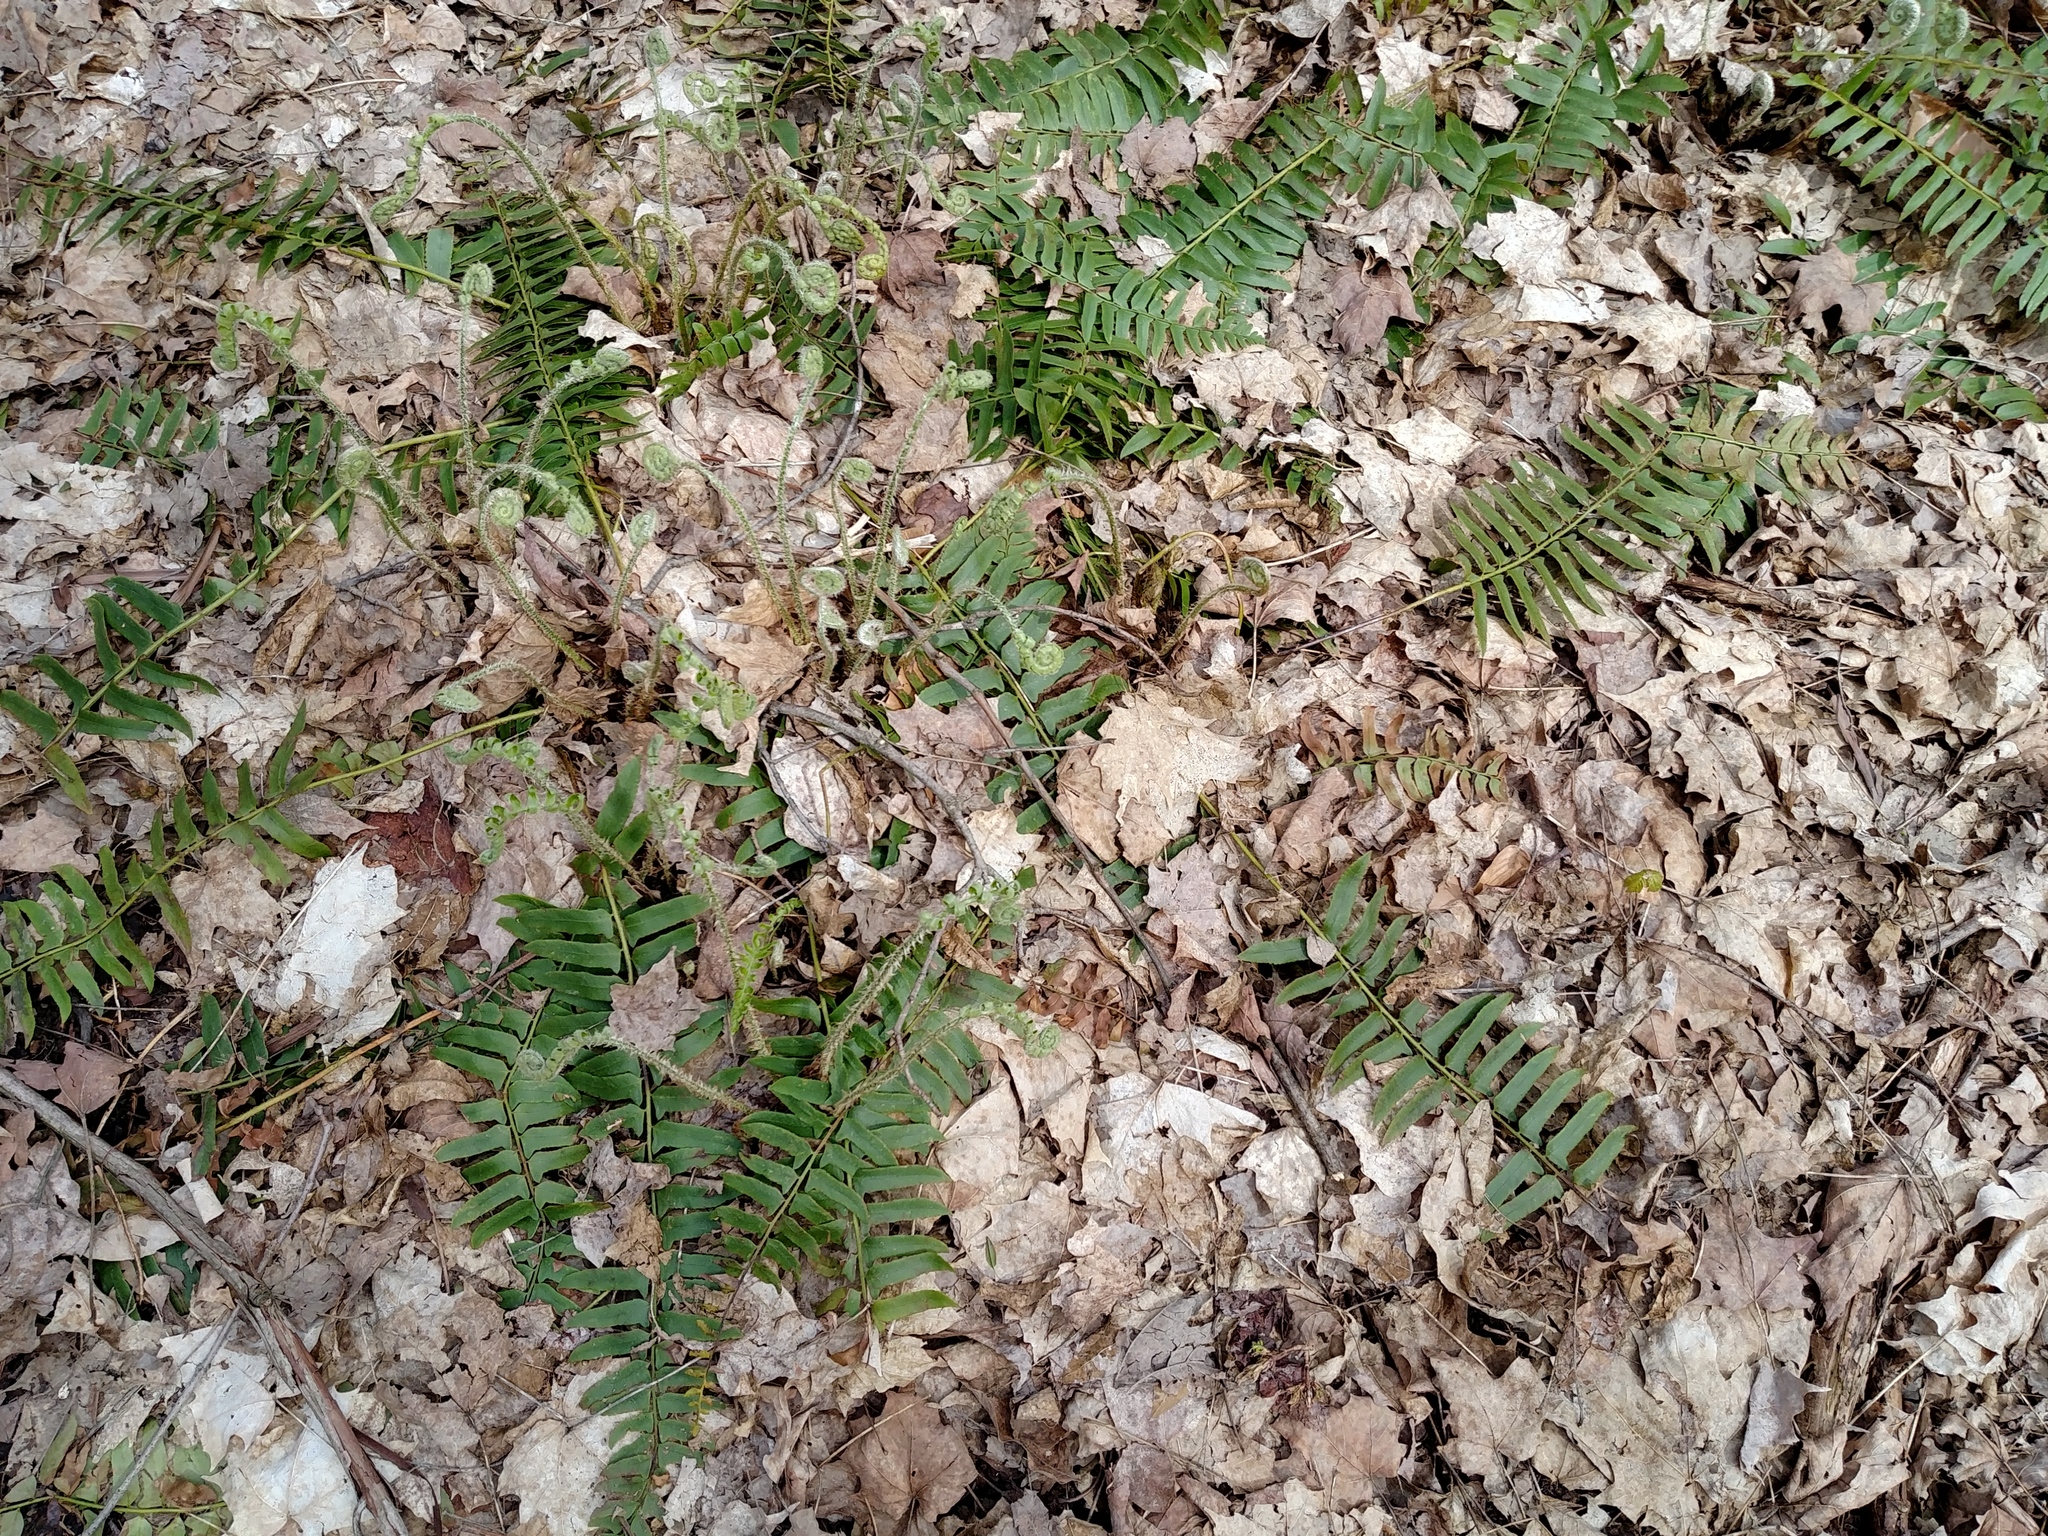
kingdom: Plantae
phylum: Tracheophyta
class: Polypodiopsida
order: Polypodiales
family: Dryopteridaceae
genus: Polystichum
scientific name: Polystichum acrostichoides
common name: Christmas fern
